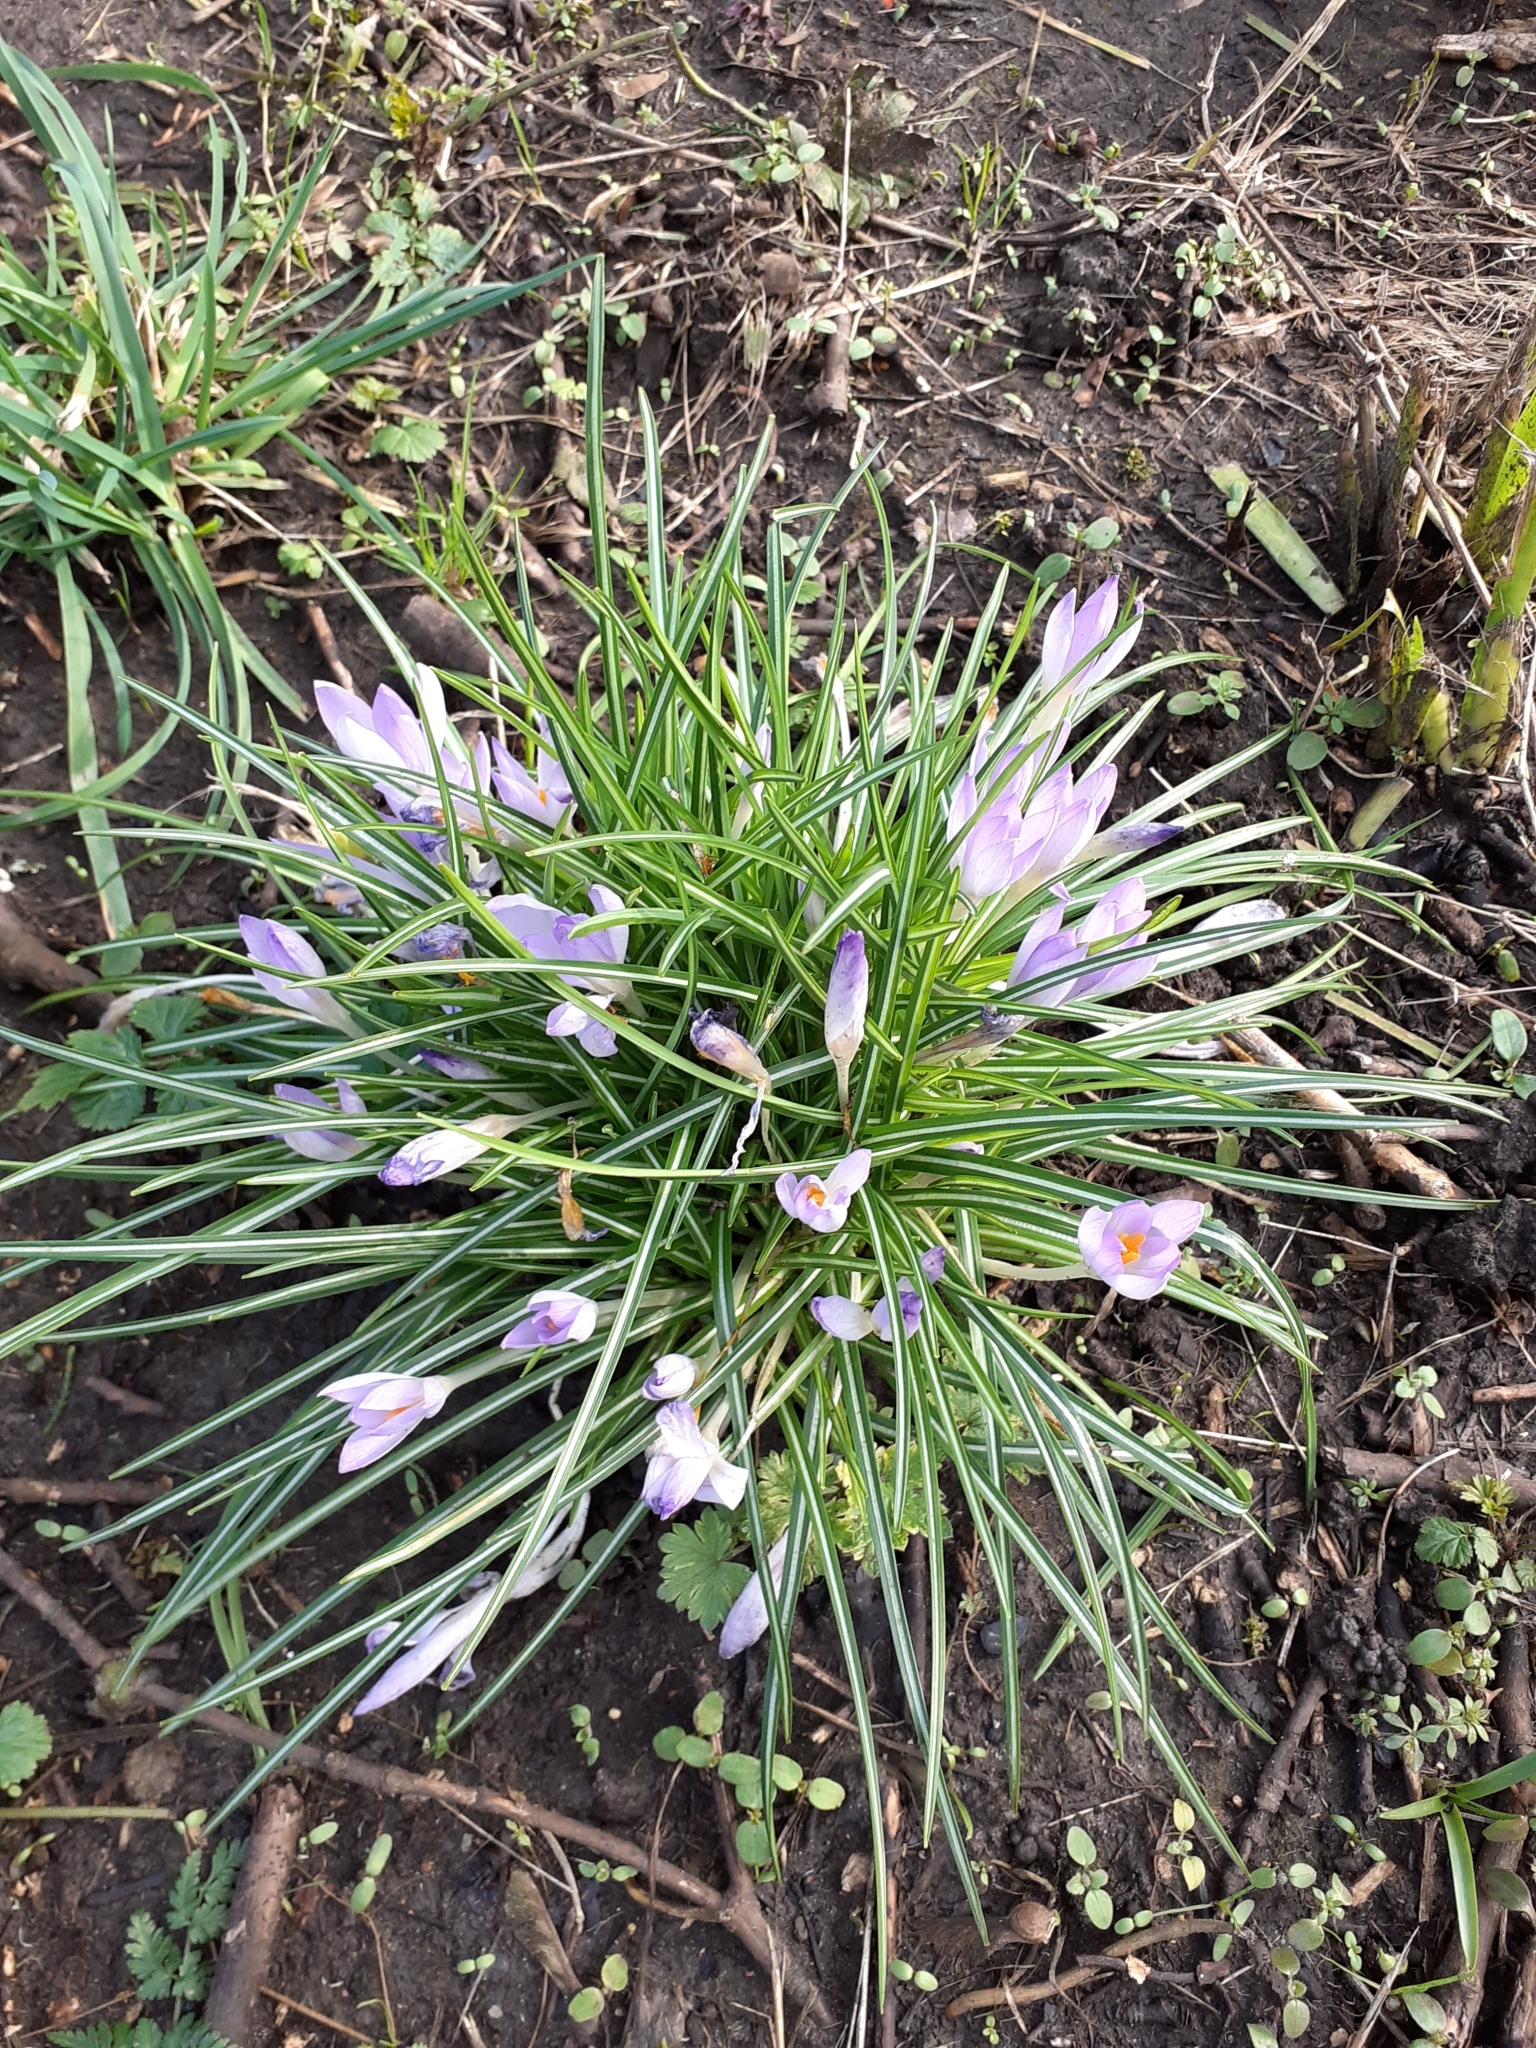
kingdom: Plantae
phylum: Tracheophyta
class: Liliopsida
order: Asparagales
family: Iridaceae
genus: Crocus
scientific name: Crocus tommasinianus
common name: Early crocus
